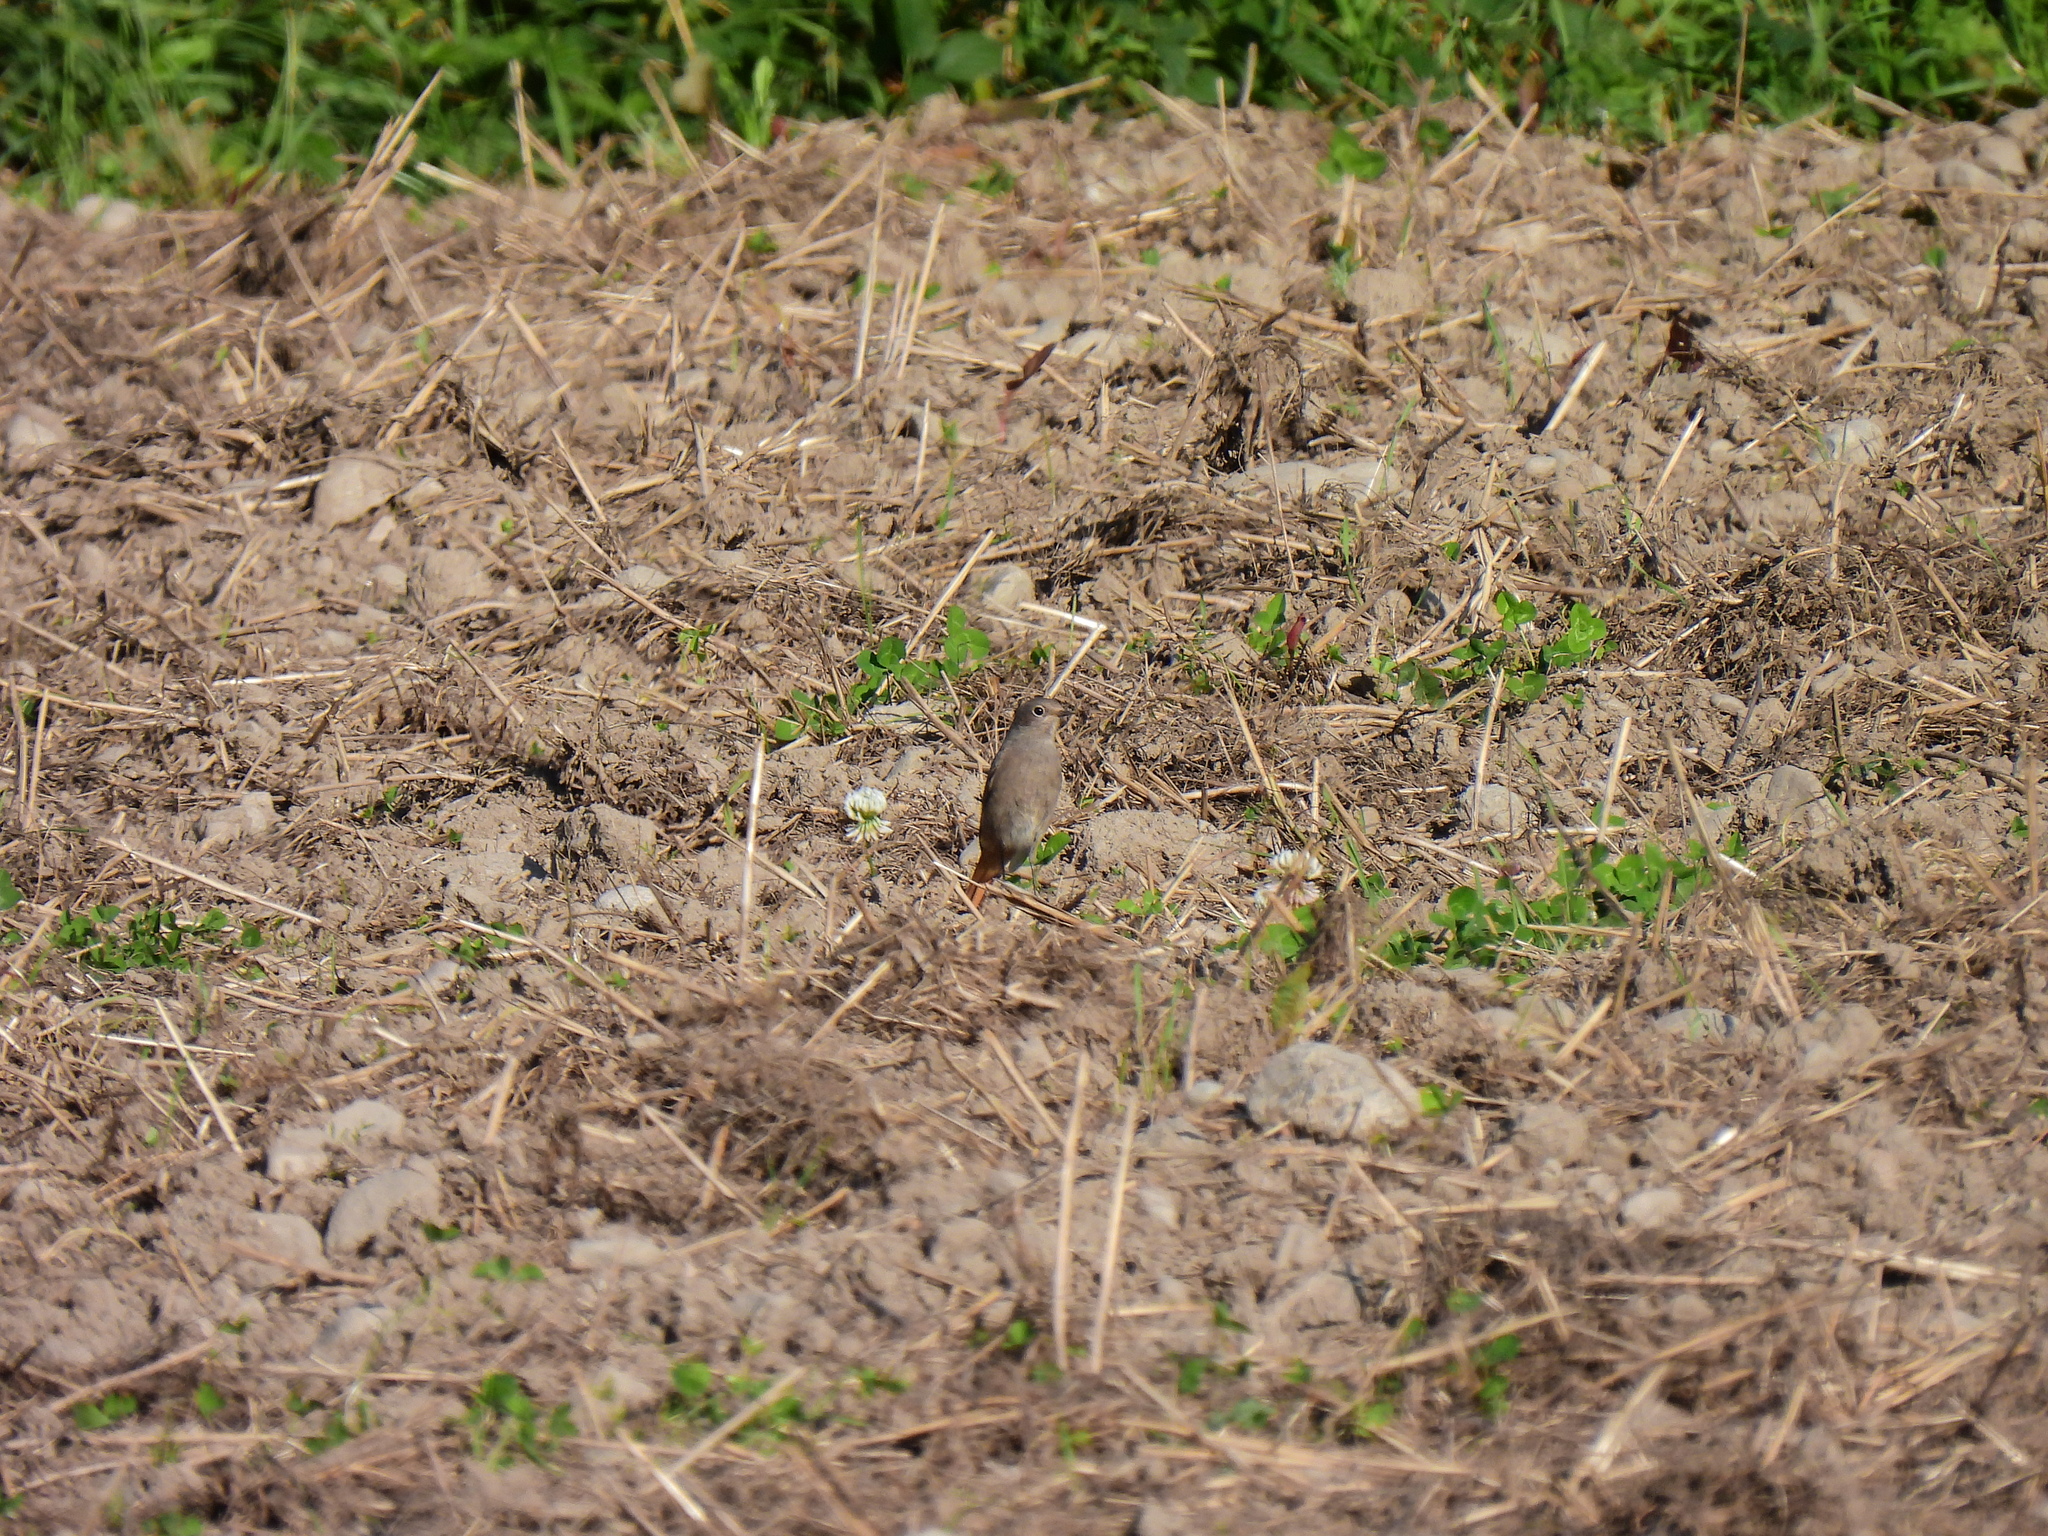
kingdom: Animalia
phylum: Chordata
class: Aves
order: Passeriformes
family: Muscicapidae
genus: Phoenicurus
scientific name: Phoenicurus ochruros
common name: Black redstart
